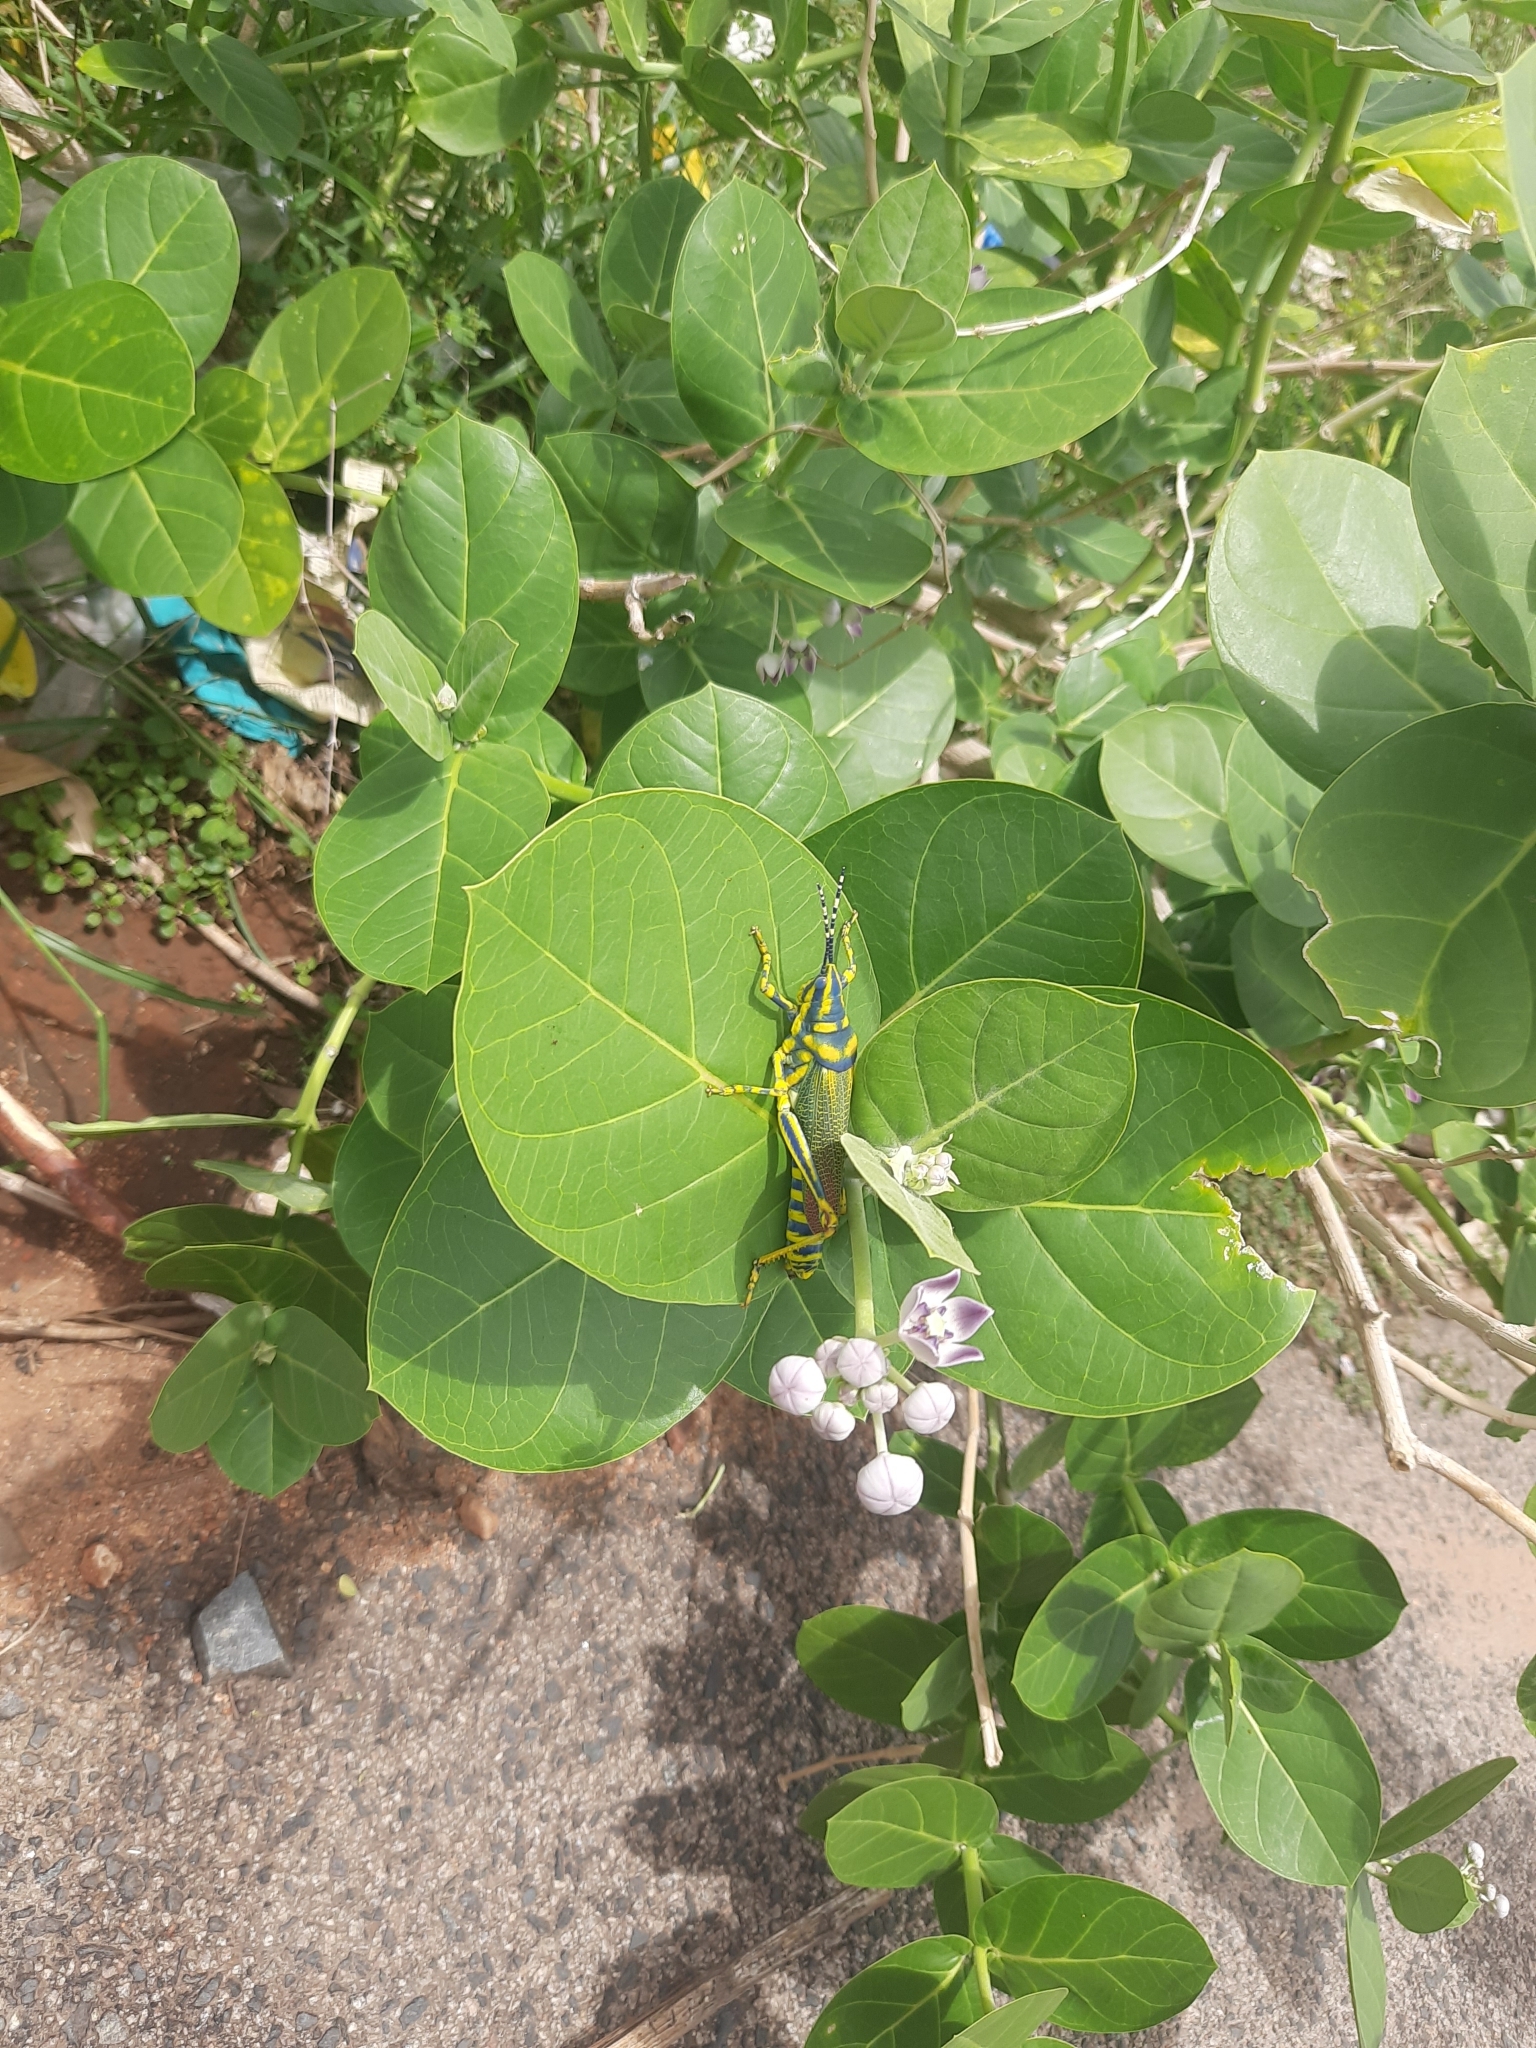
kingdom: Animalia
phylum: Arthropoda
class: Insecta
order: Orthoptera
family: Pyrgomorphidae
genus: Poekilocerus
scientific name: Poekilocerus pictus
